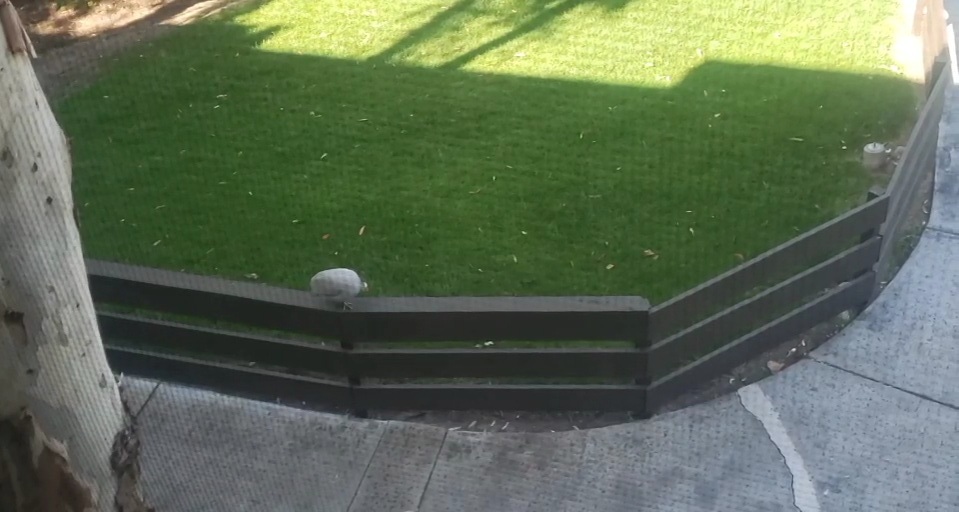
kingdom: Animalia
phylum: Chordata
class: Aves
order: Galliformes
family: Numididae
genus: Numida
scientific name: Numida meleagris
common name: Helmeted guineafowl
